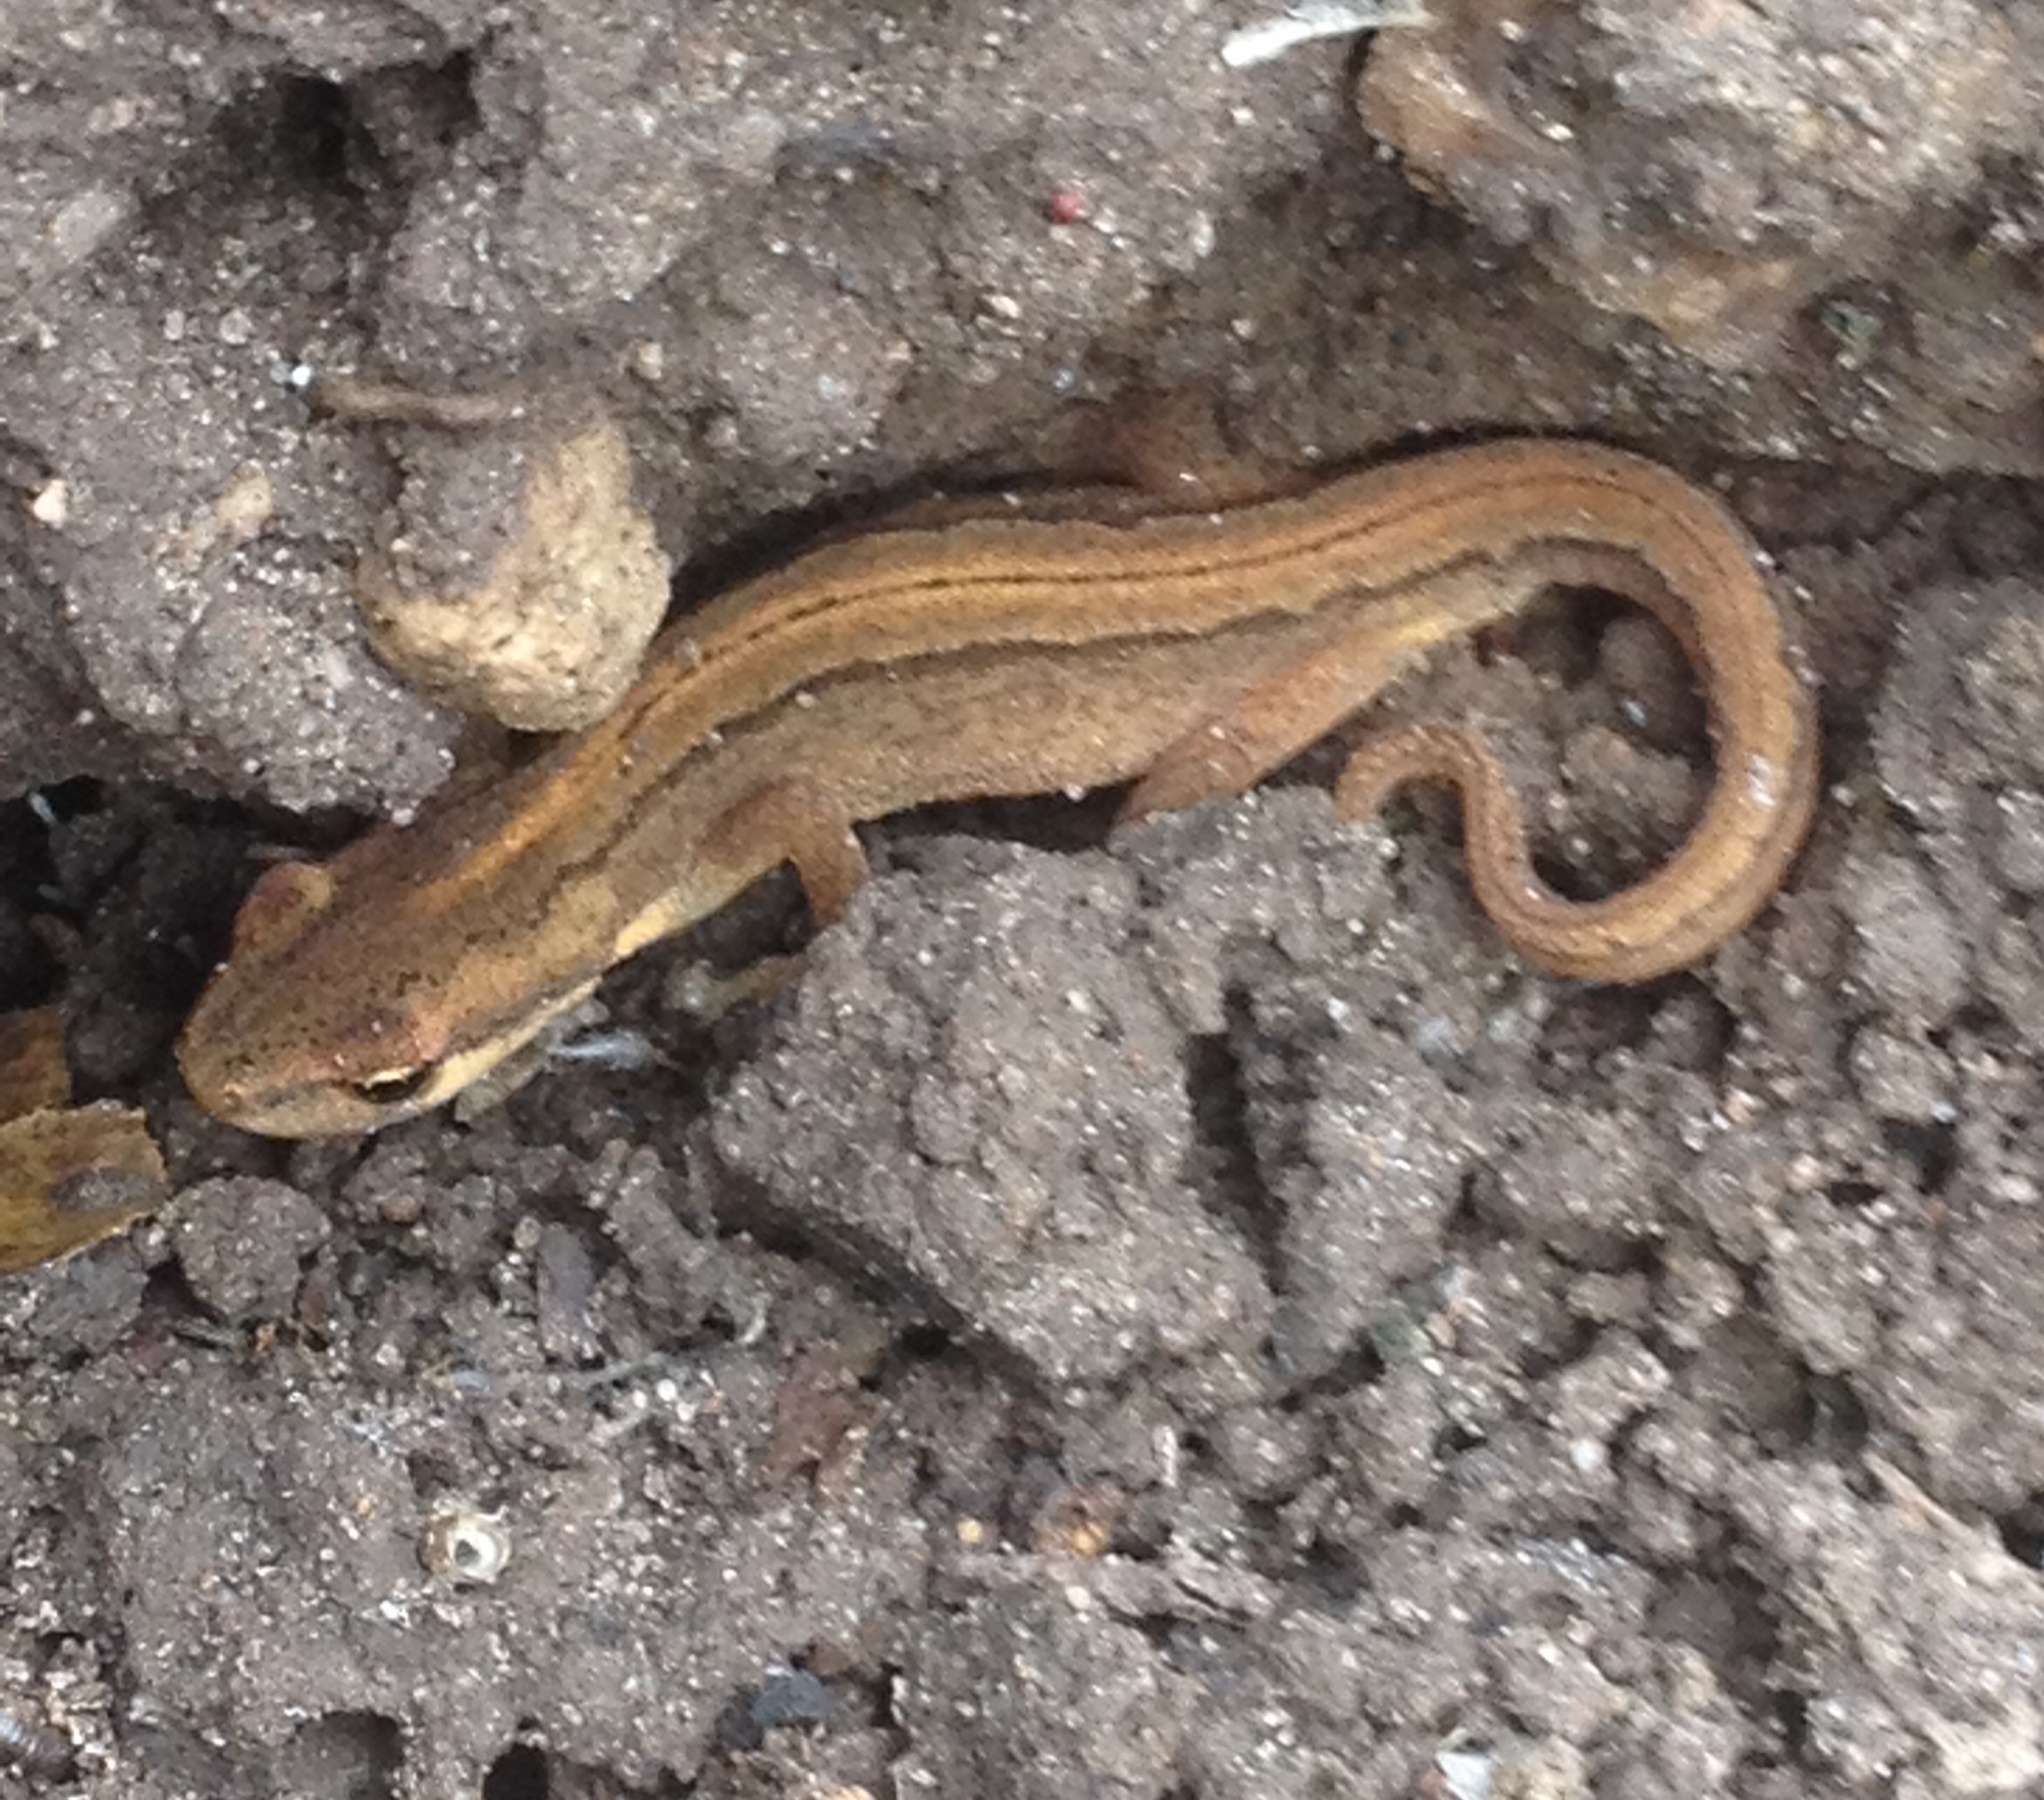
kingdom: Animalia
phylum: Chordata
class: Amphibia
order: Caudata
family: Salamandridae
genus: Lissotriton
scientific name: Lissotriton vulgaris
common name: Smooth newt
